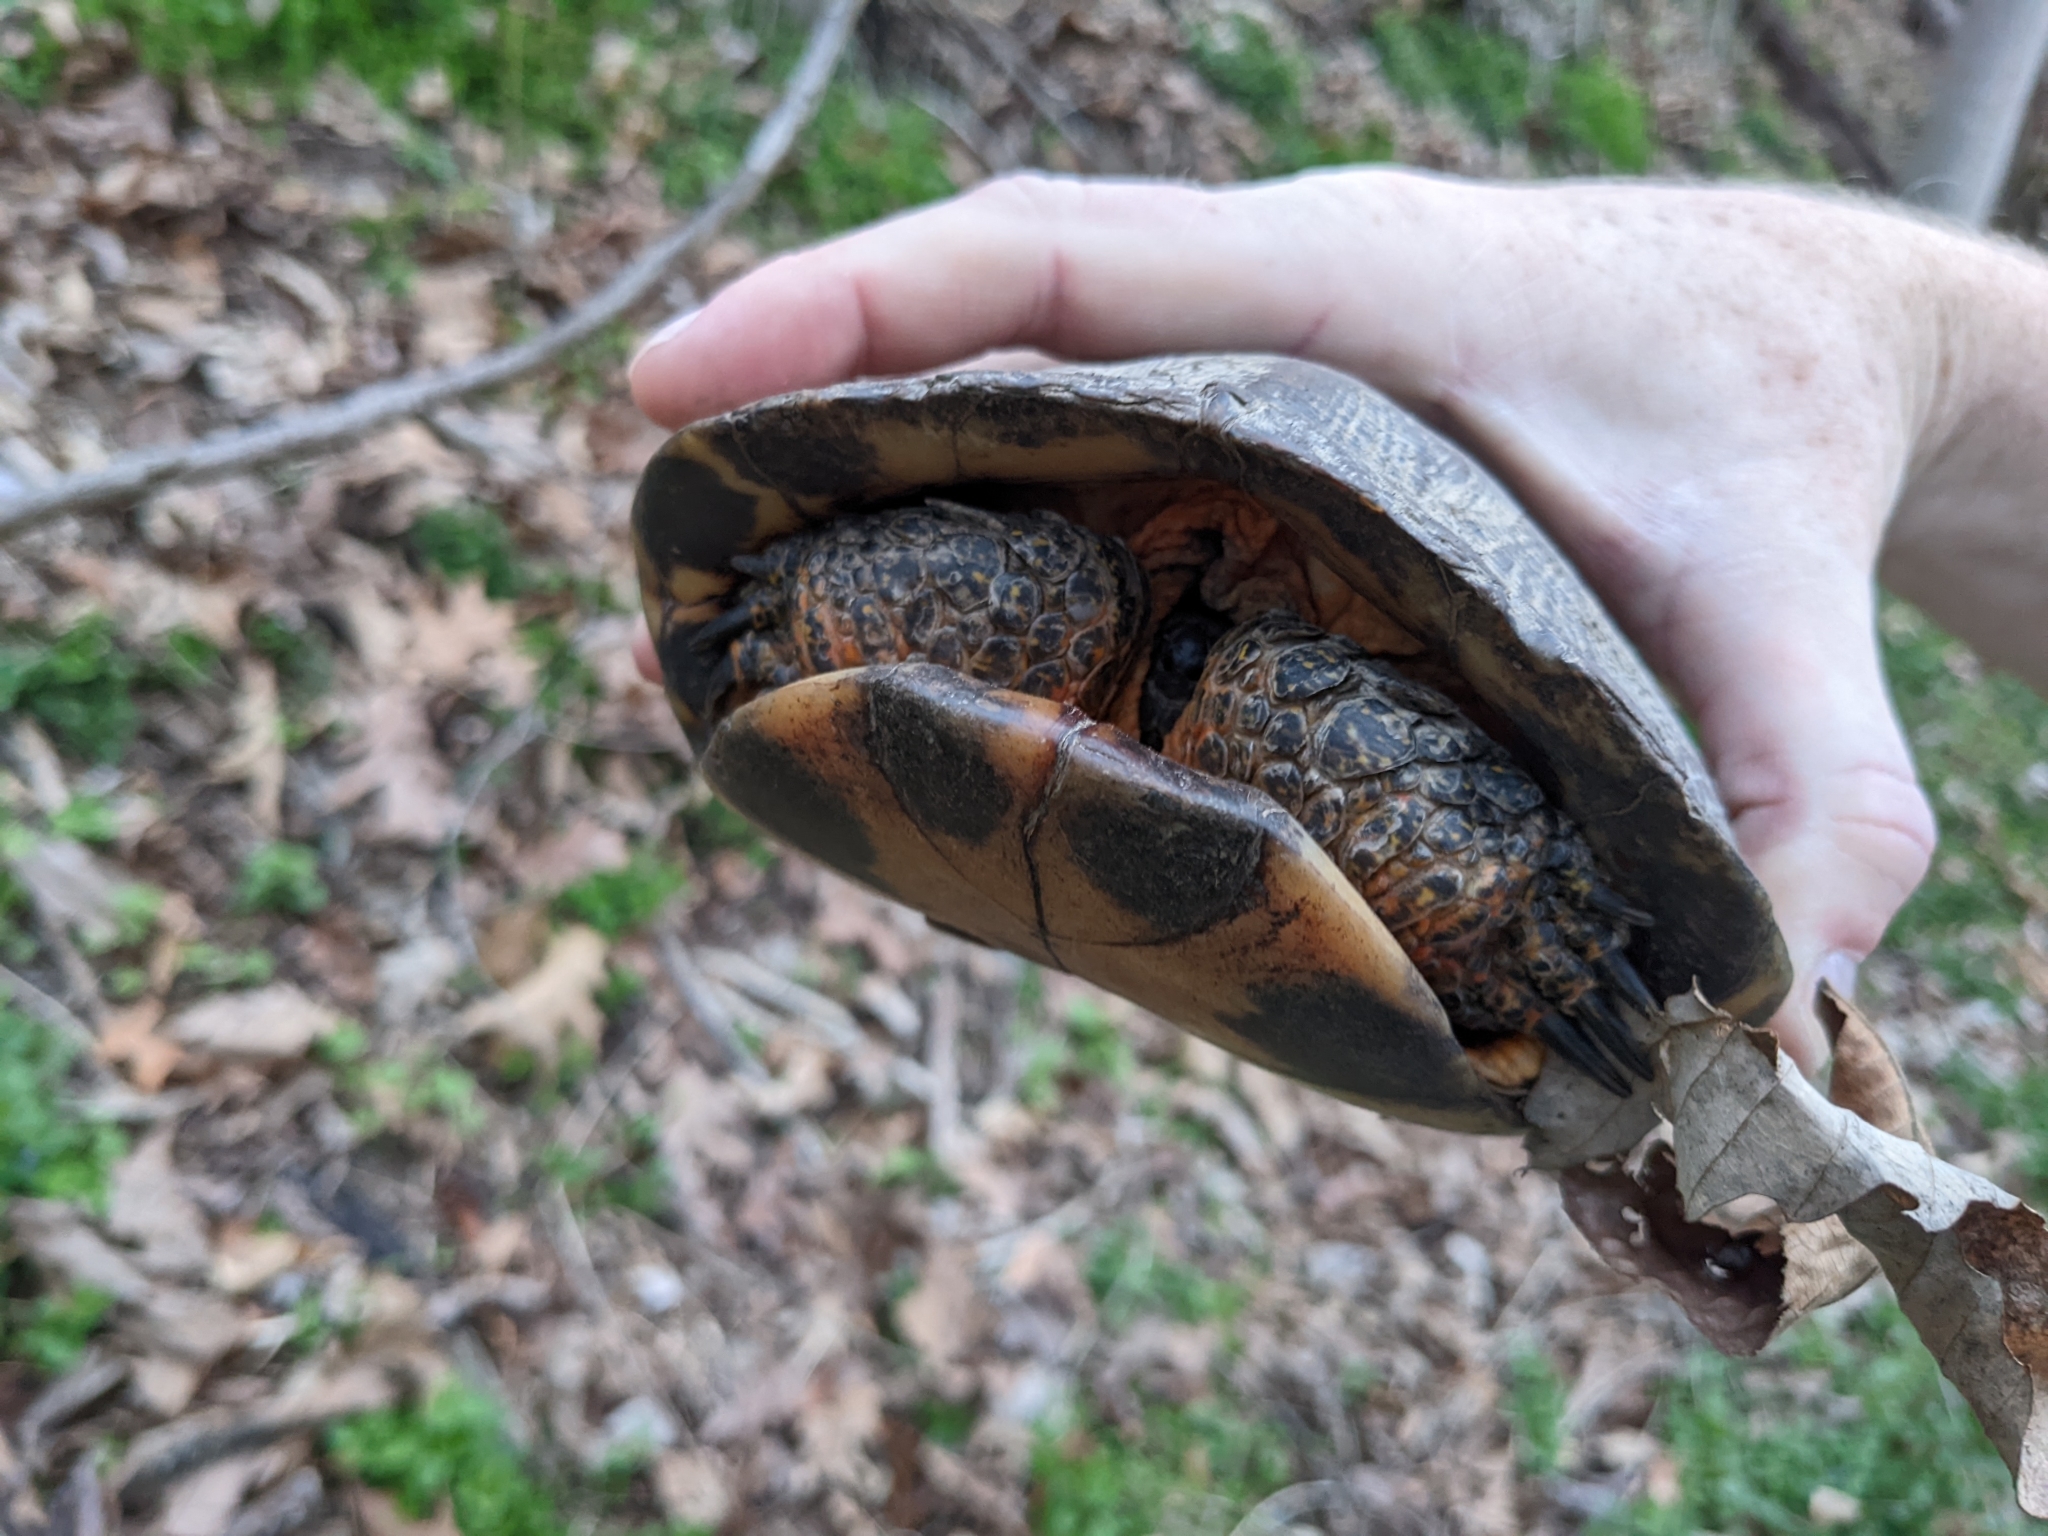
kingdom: Animalia
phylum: Chordata
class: Testudines
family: Emydidae
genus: Glyptemys
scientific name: Glyptemys insculpta
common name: Wood turtle
